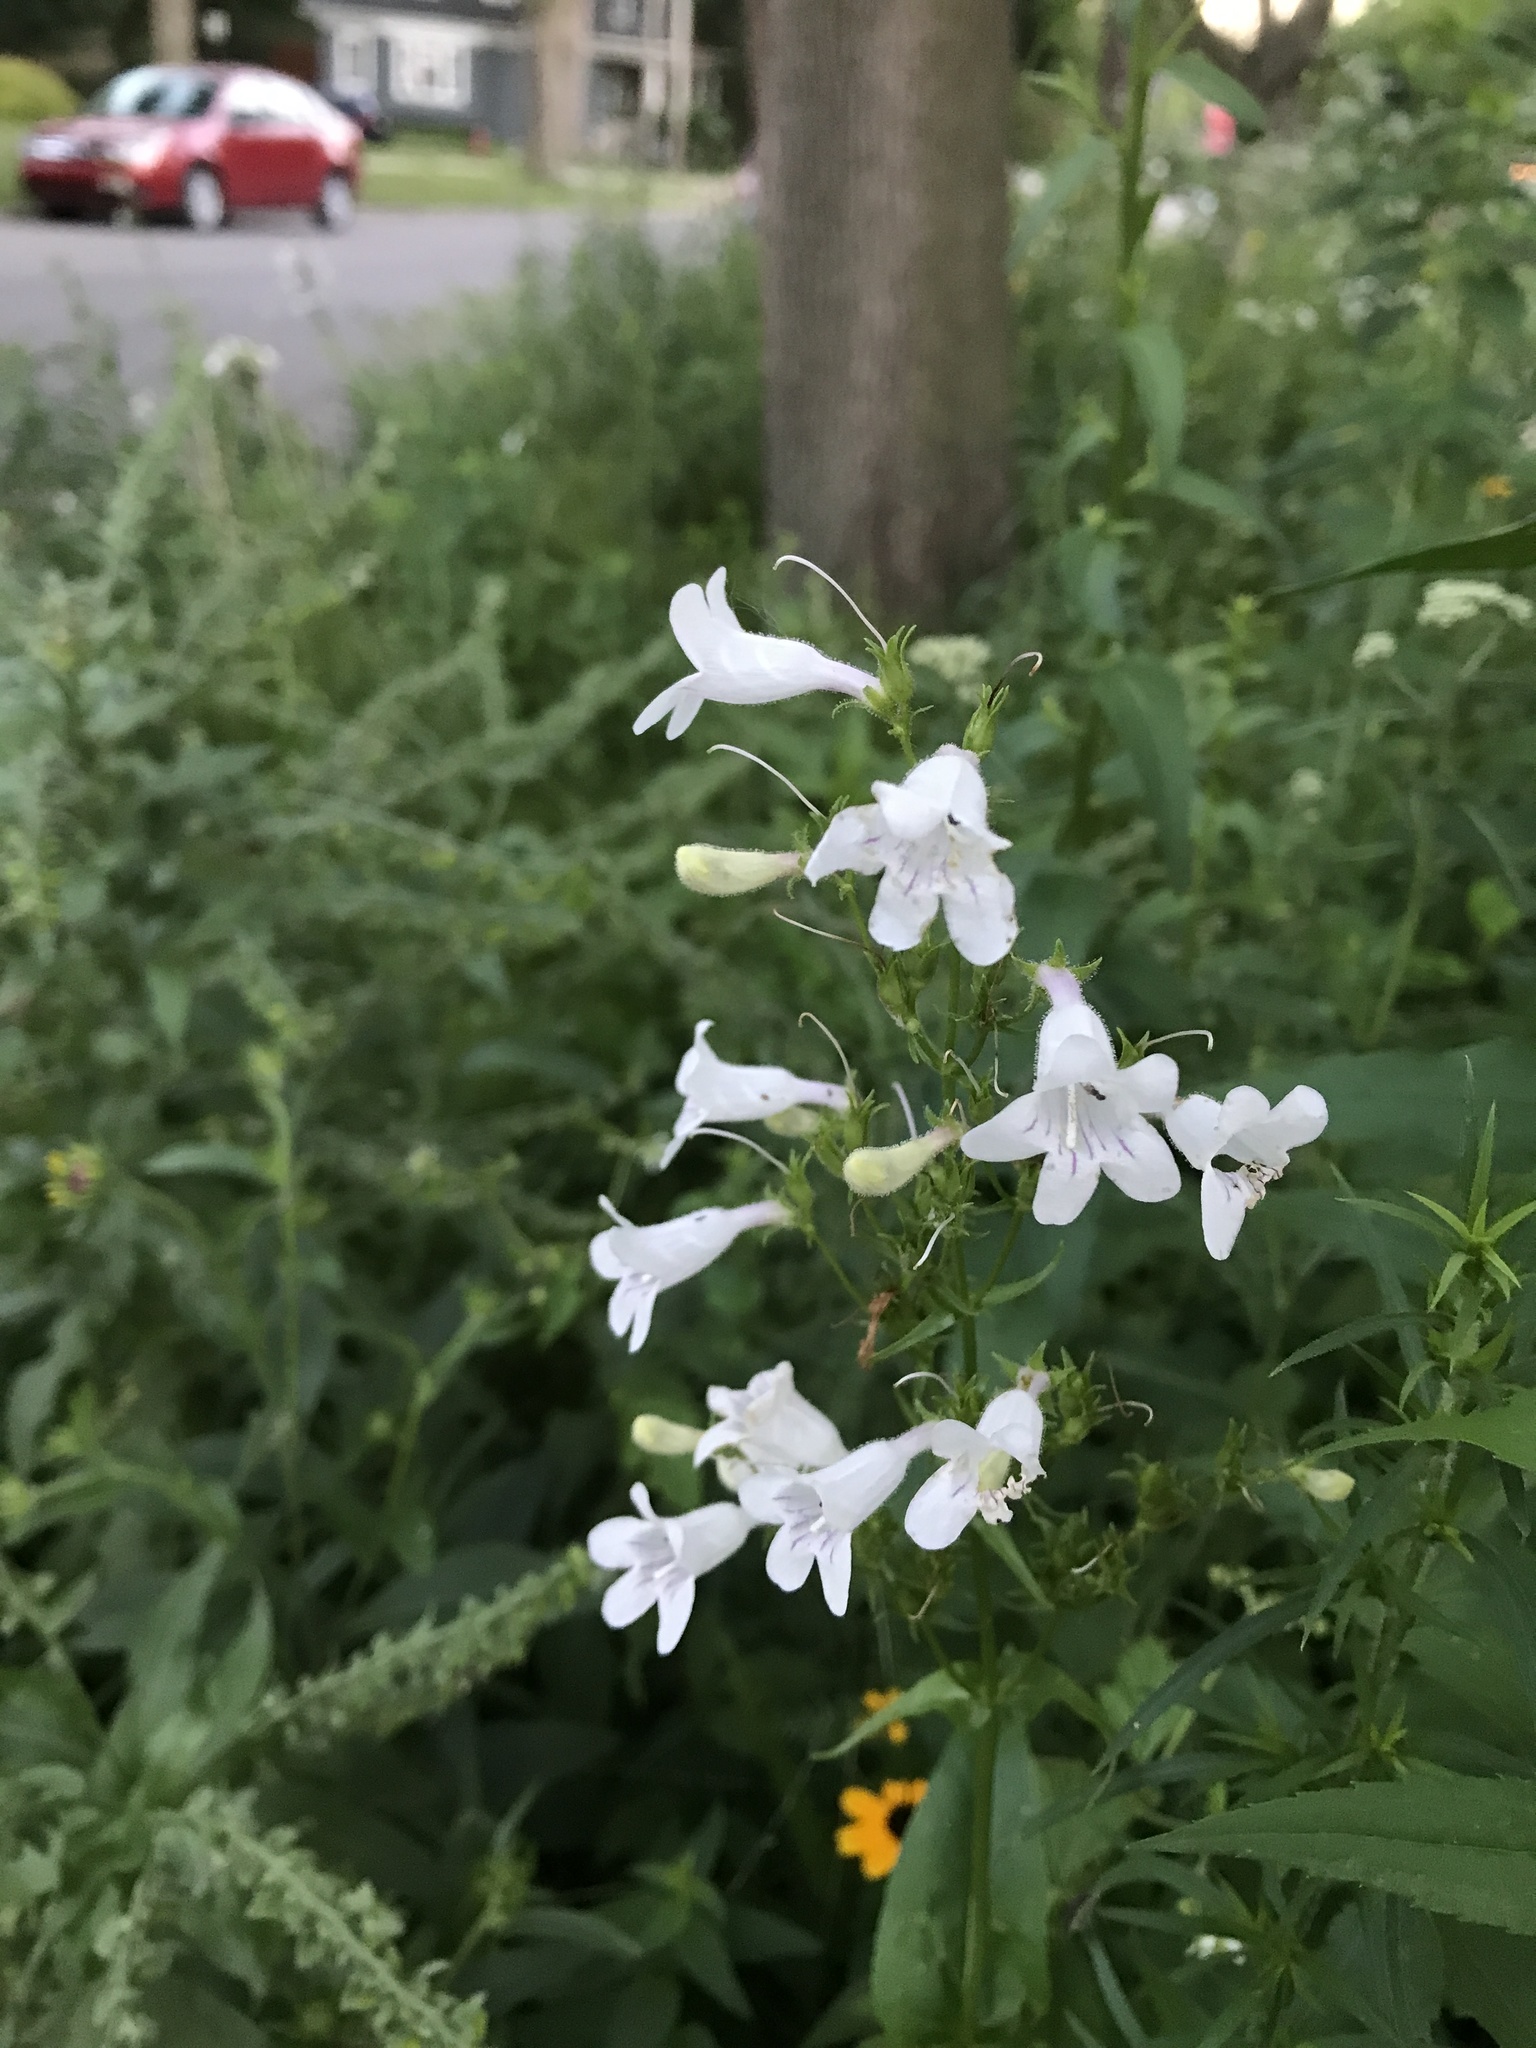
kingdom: Plantae
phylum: Tracheophyta
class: Magnoliopsida
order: Lamiales
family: Plantaginaceae
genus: Penstemon
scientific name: Penstemon digitalis
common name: Foxglove beardtongue
